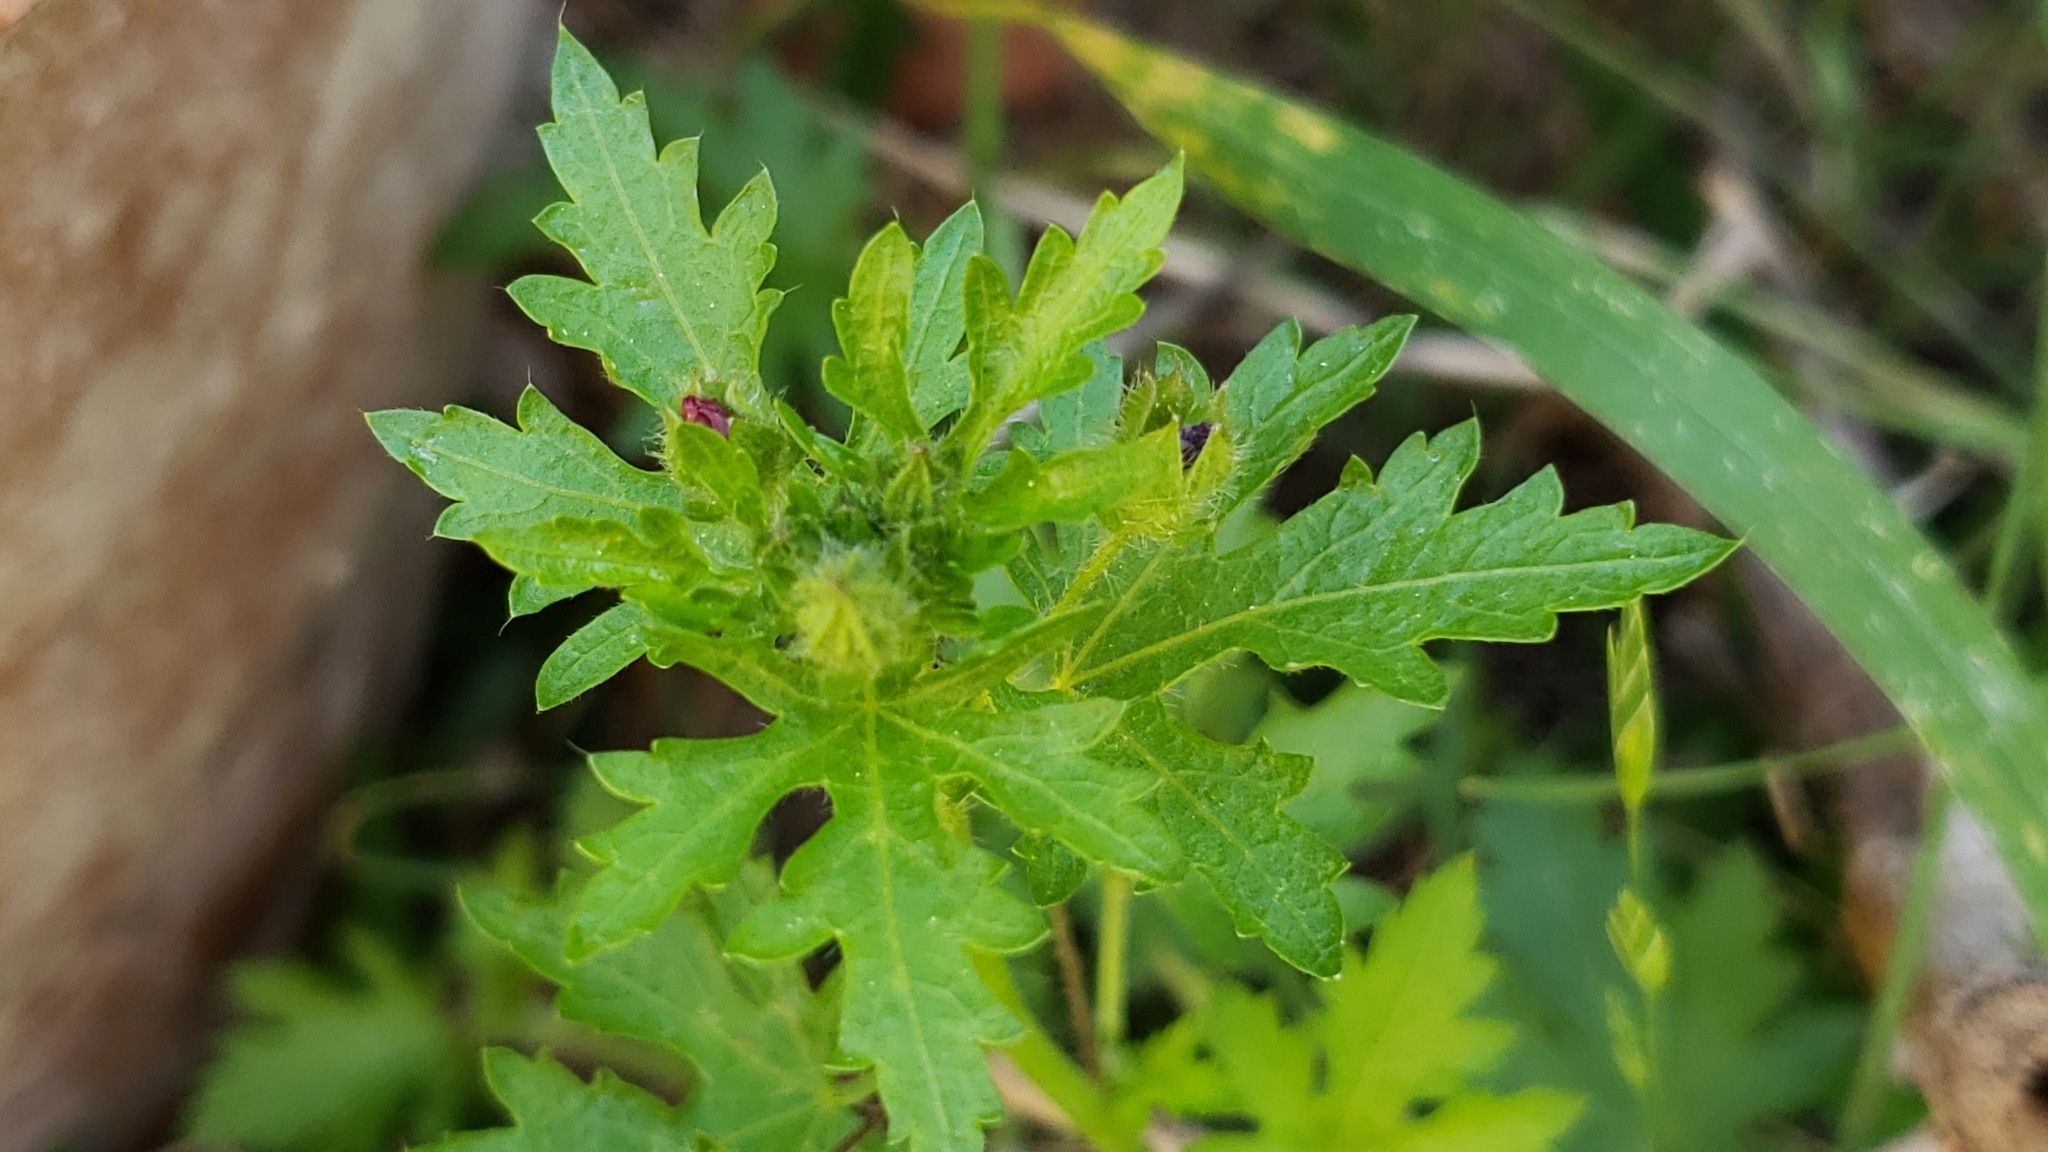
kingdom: Plantae
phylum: Tracheophyta
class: Magnoliopsida
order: Malvales
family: Malvaceae
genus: Modiola
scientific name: Modiola caroliniana
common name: Carolina bristlemallow
